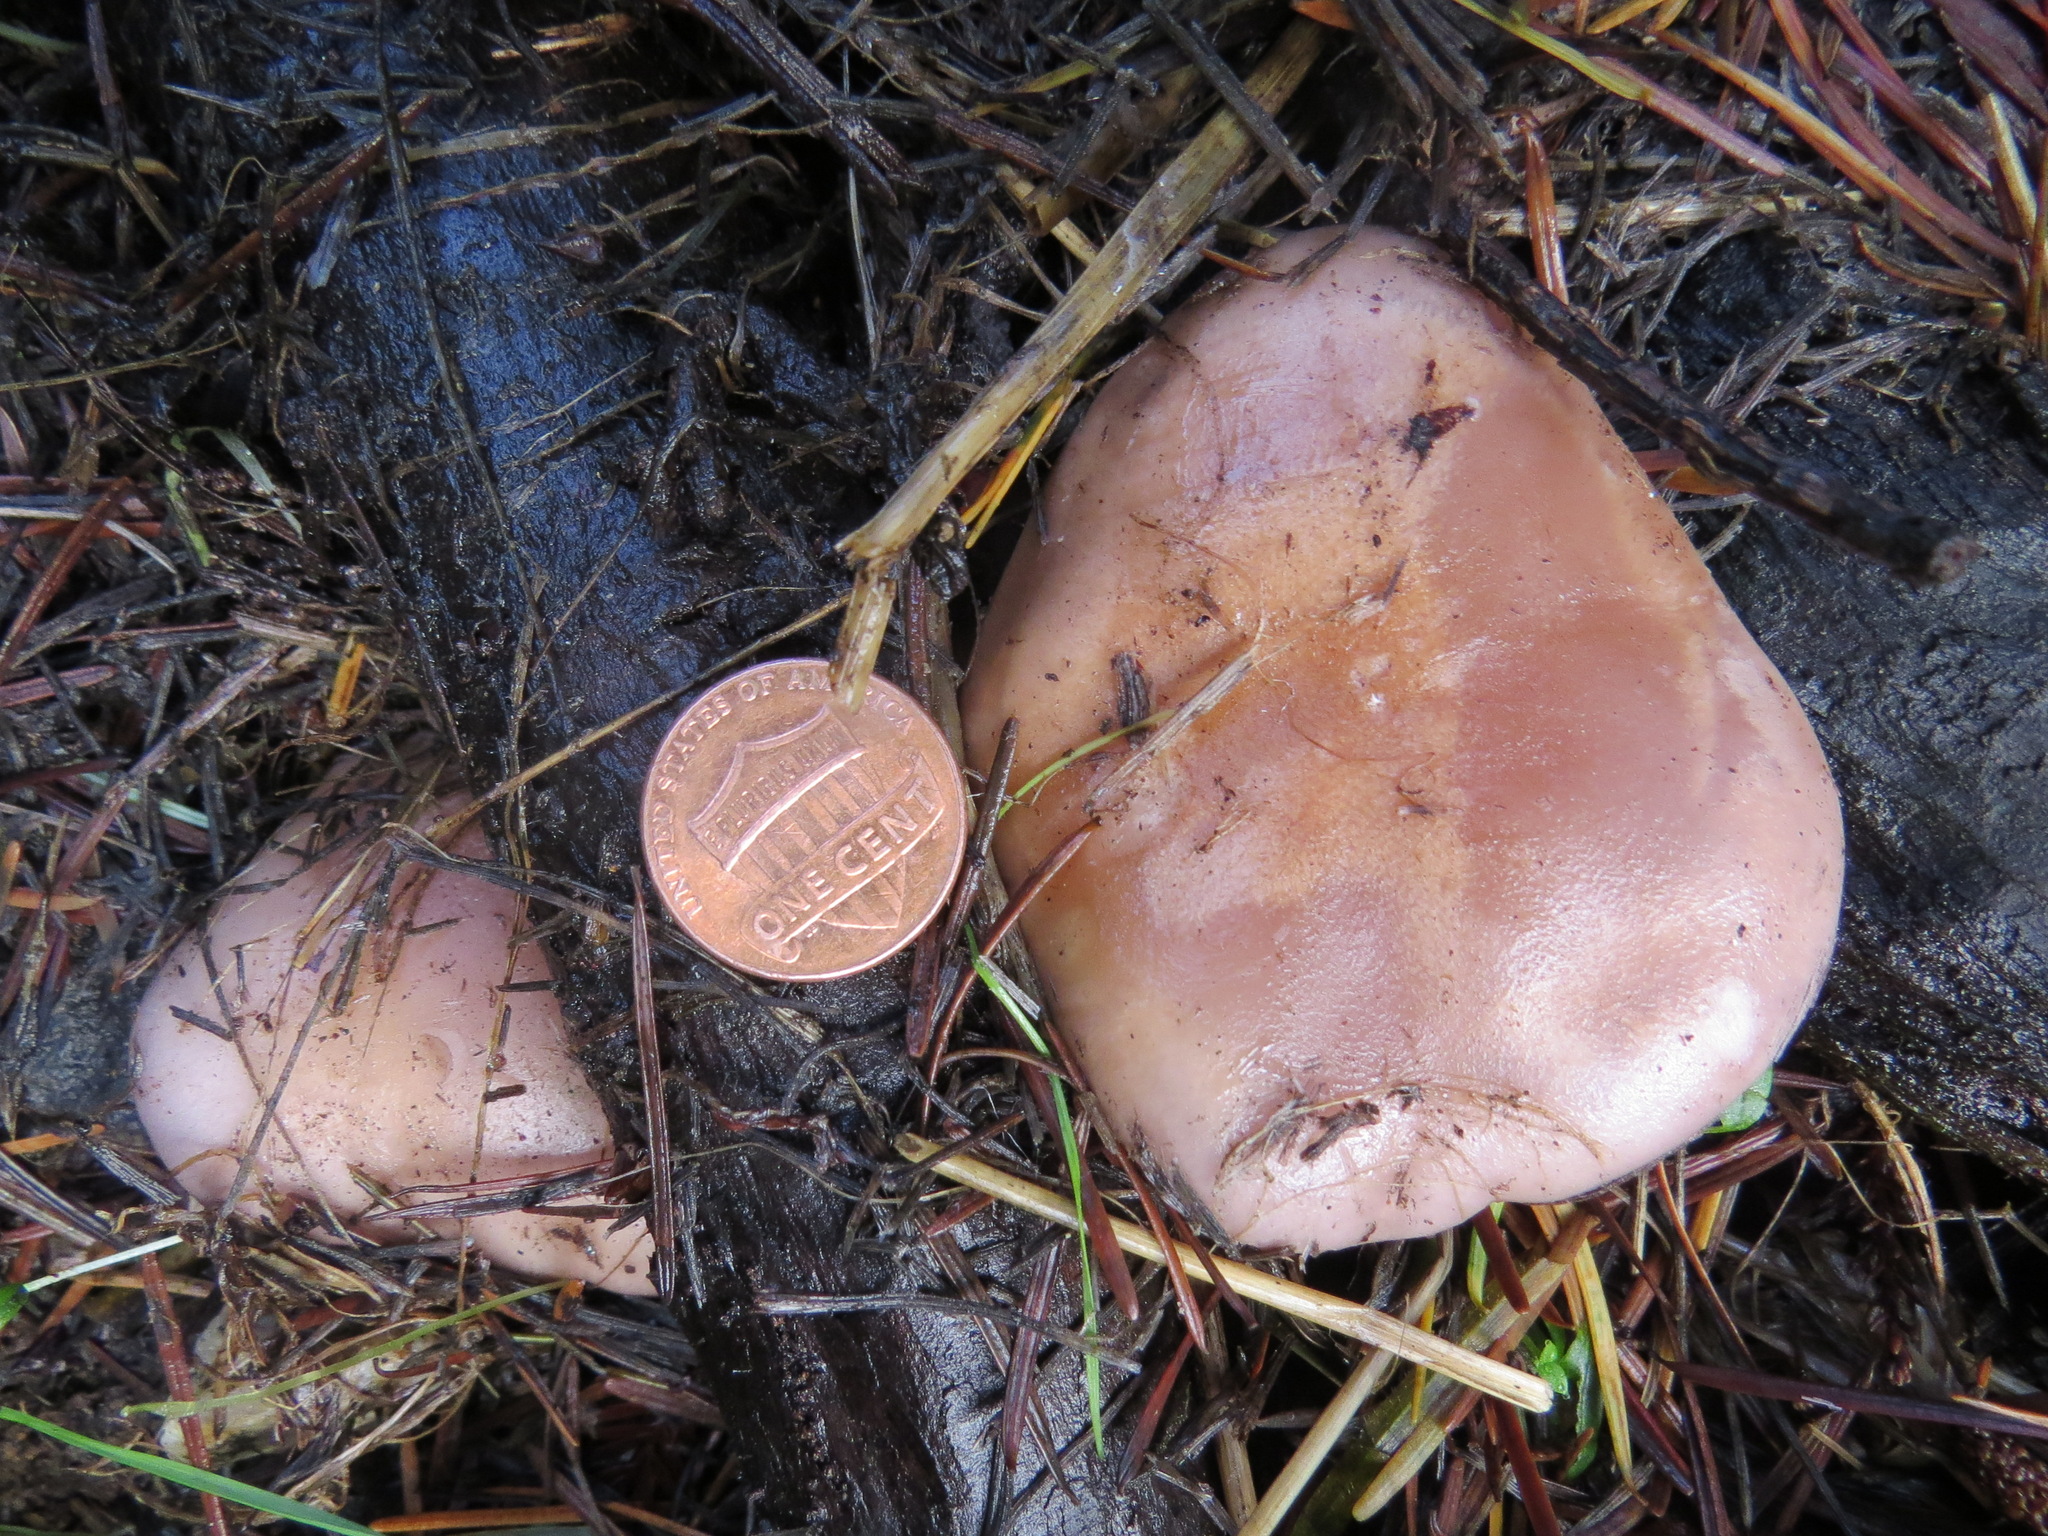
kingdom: Fungi
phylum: Basidiomycota
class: Agaricomycetes
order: Agaricales
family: Tricholomataceae
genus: Collybia
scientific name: Collybia
